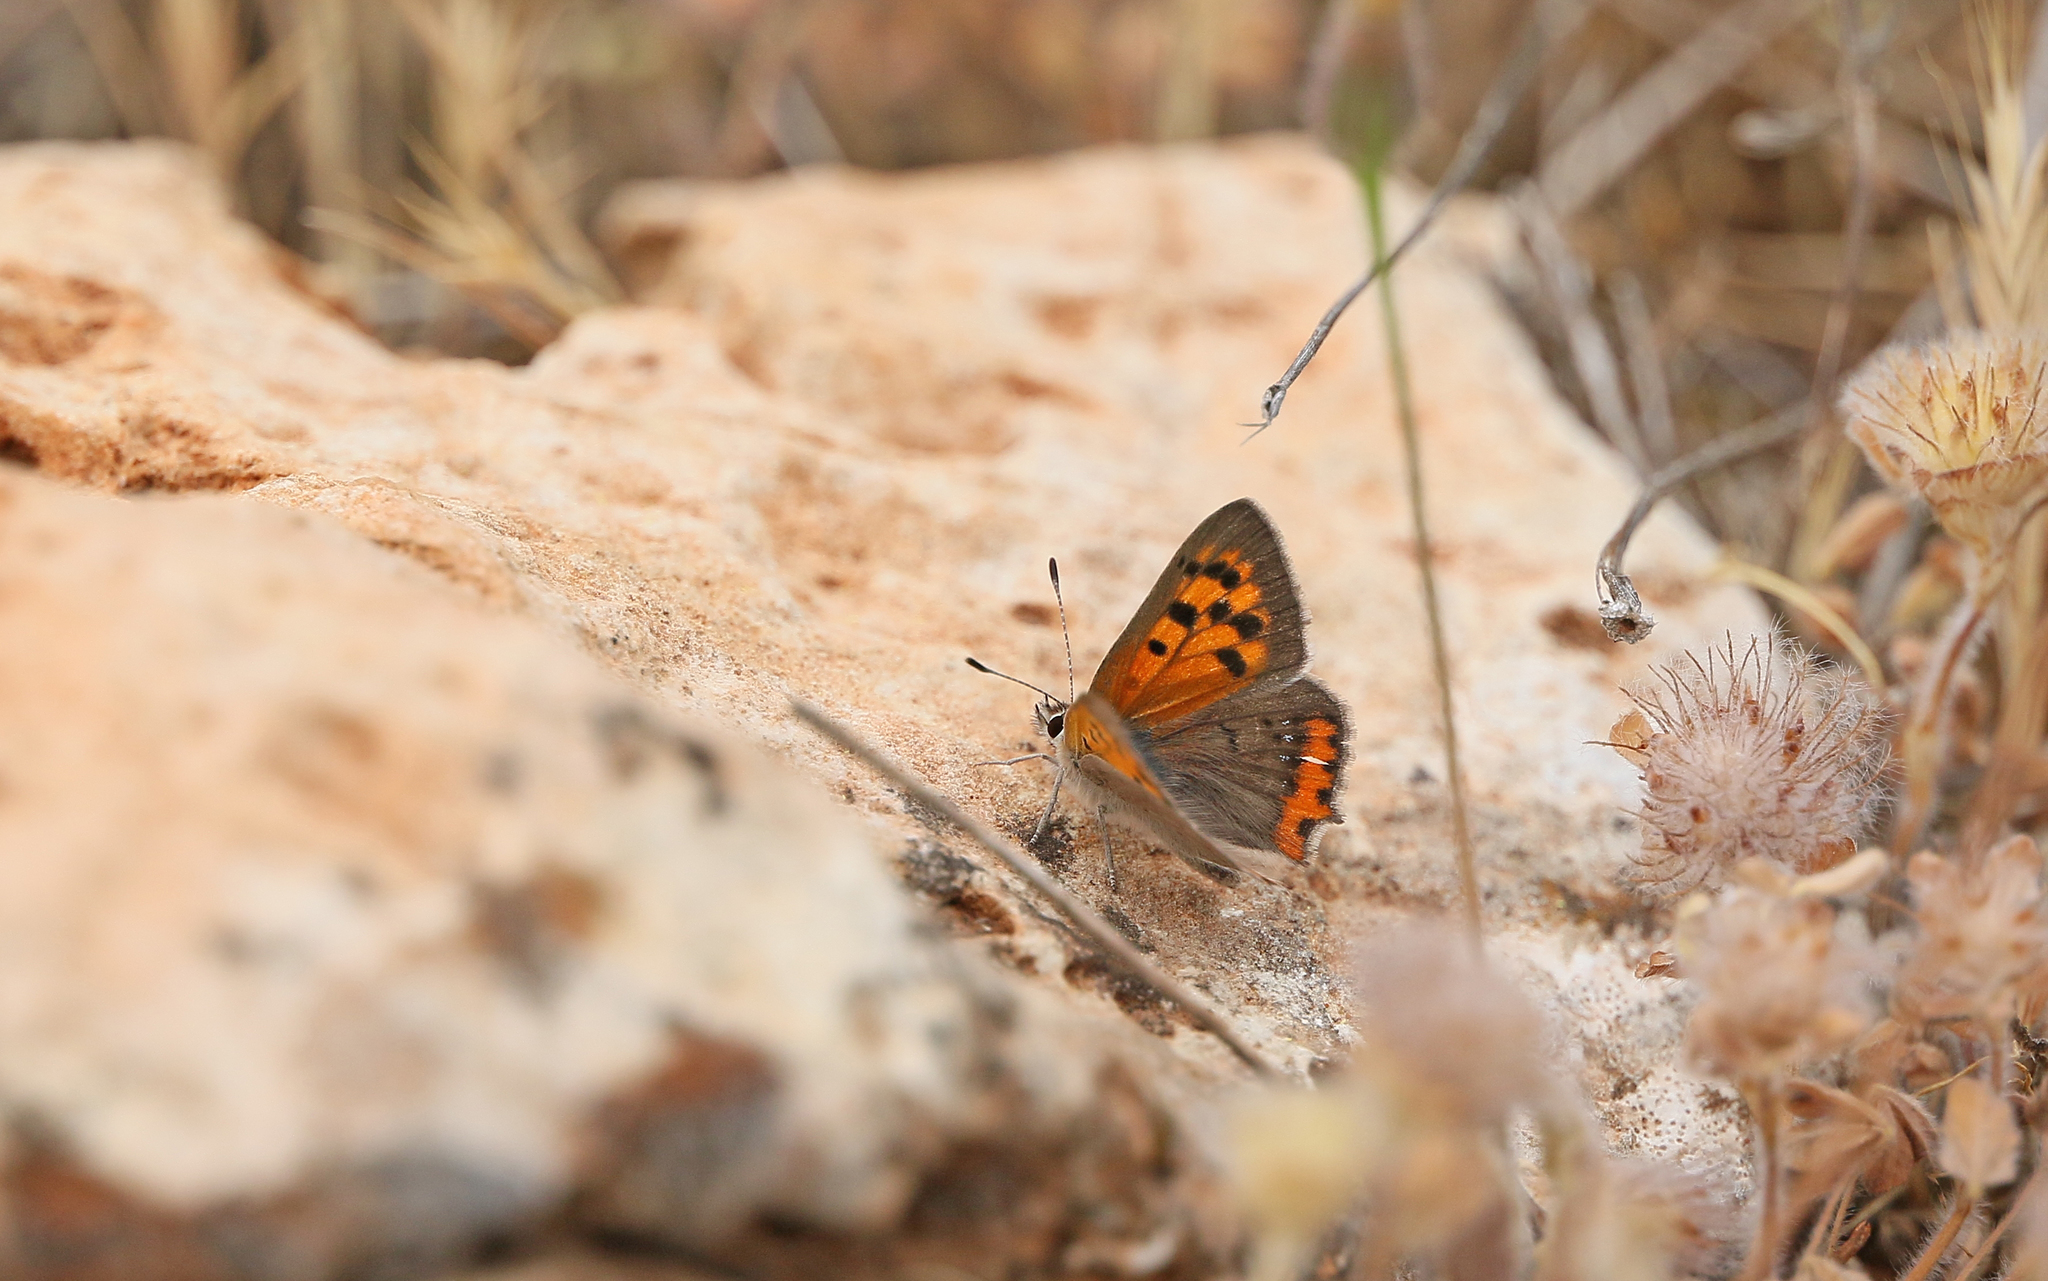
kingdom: Animalia
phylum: Arthropoda
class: Insecta
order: Lepidoptera
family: Lycaenidae
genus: Lycaena
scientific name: Lycaena phlaeas
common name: Small copper
